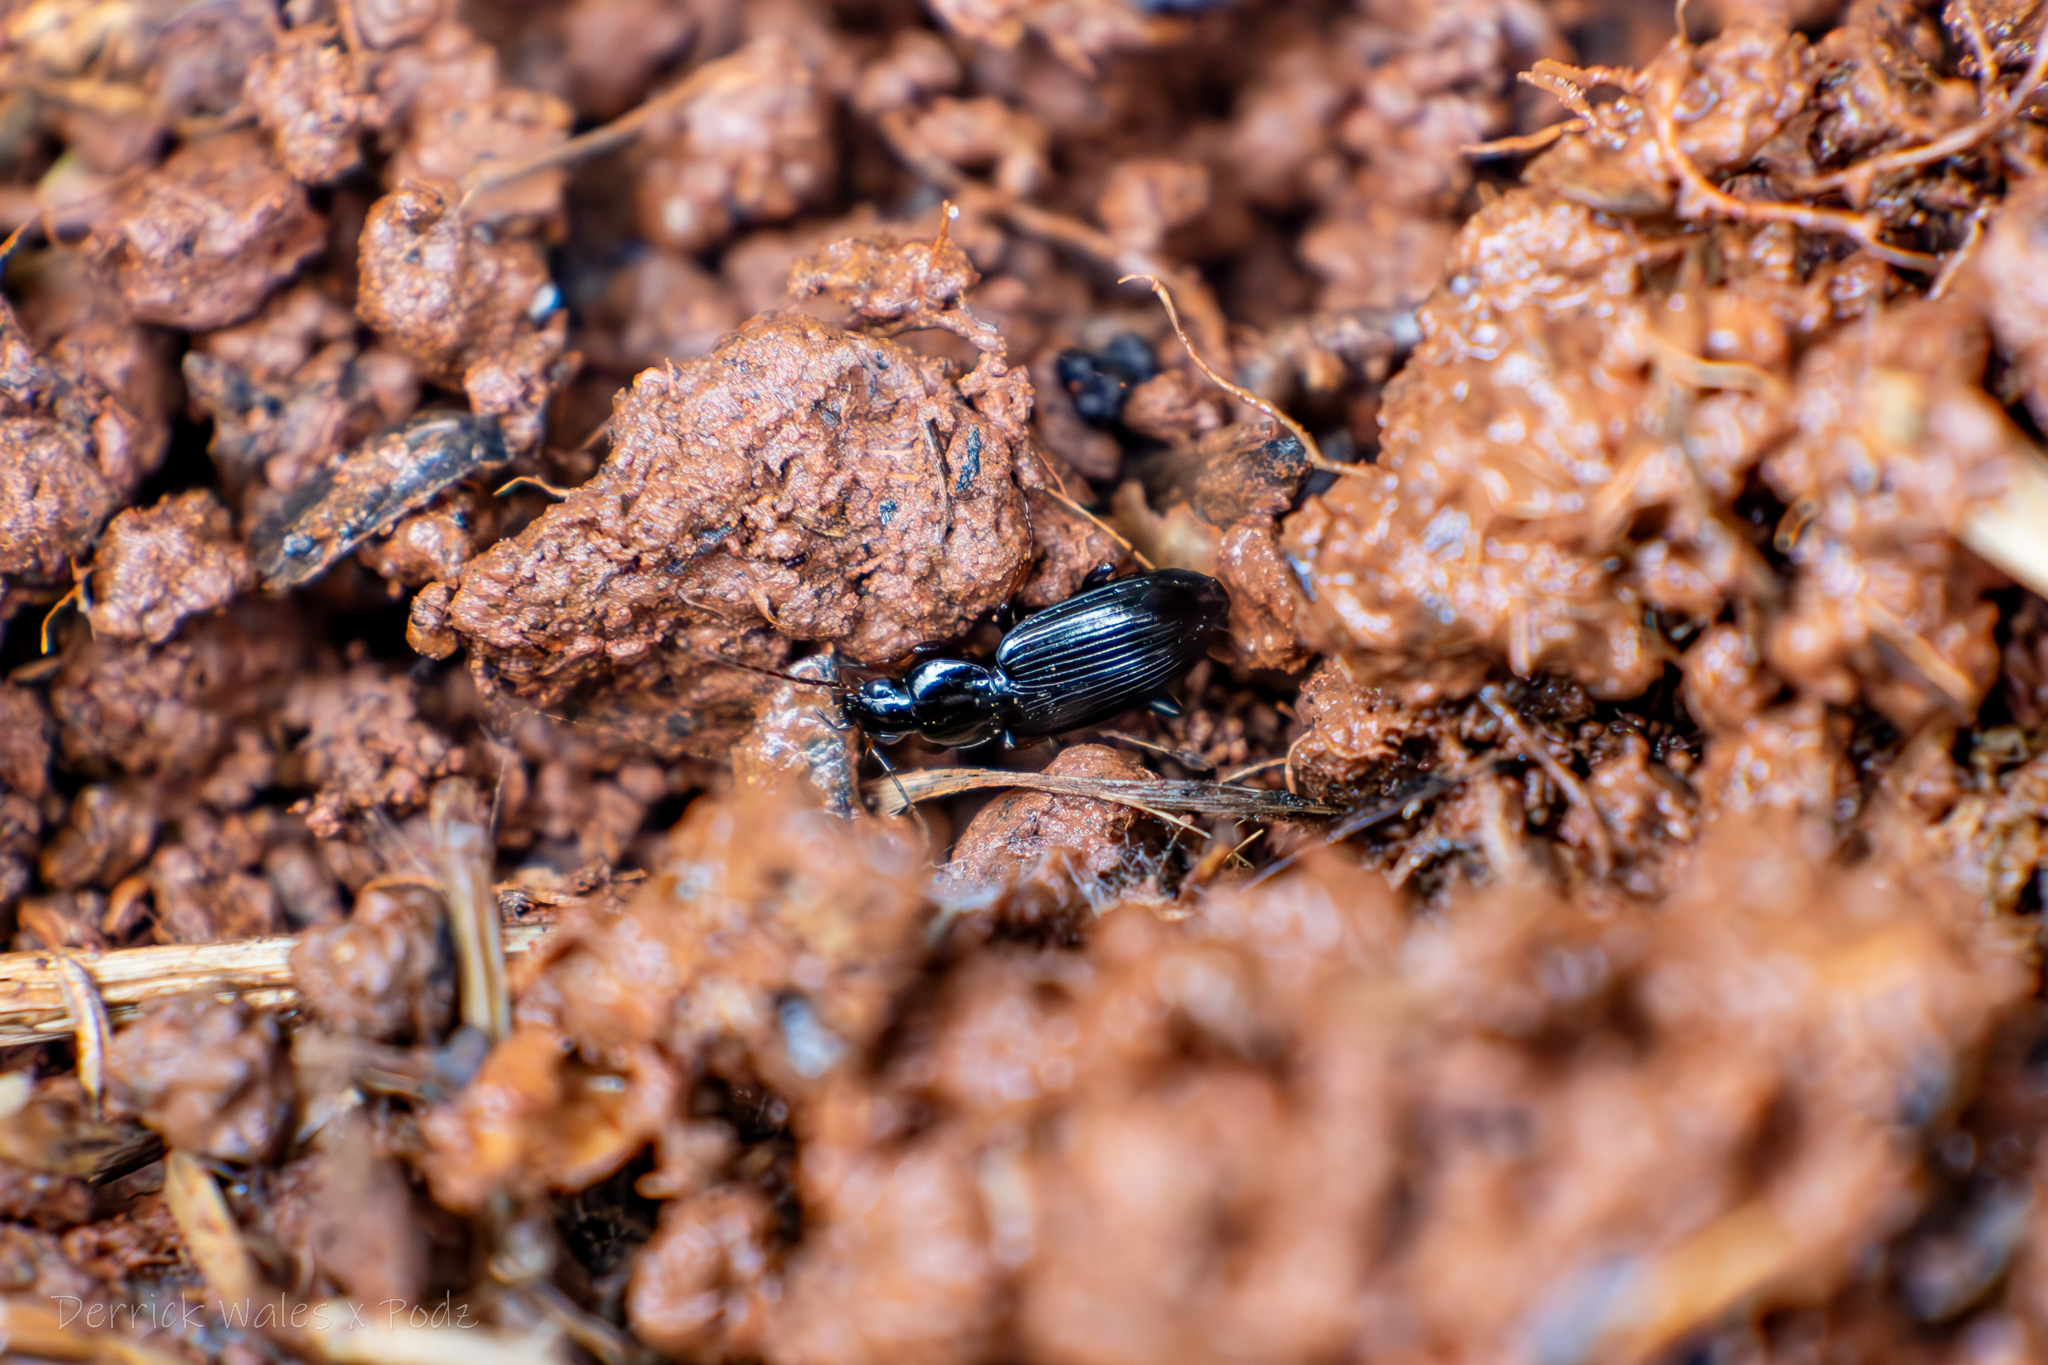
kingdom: Animalia
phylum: Arthropoda
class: Insecta
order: Coleoptera
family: Carabidae
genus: Agonum
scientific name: Agonum punctiforme
